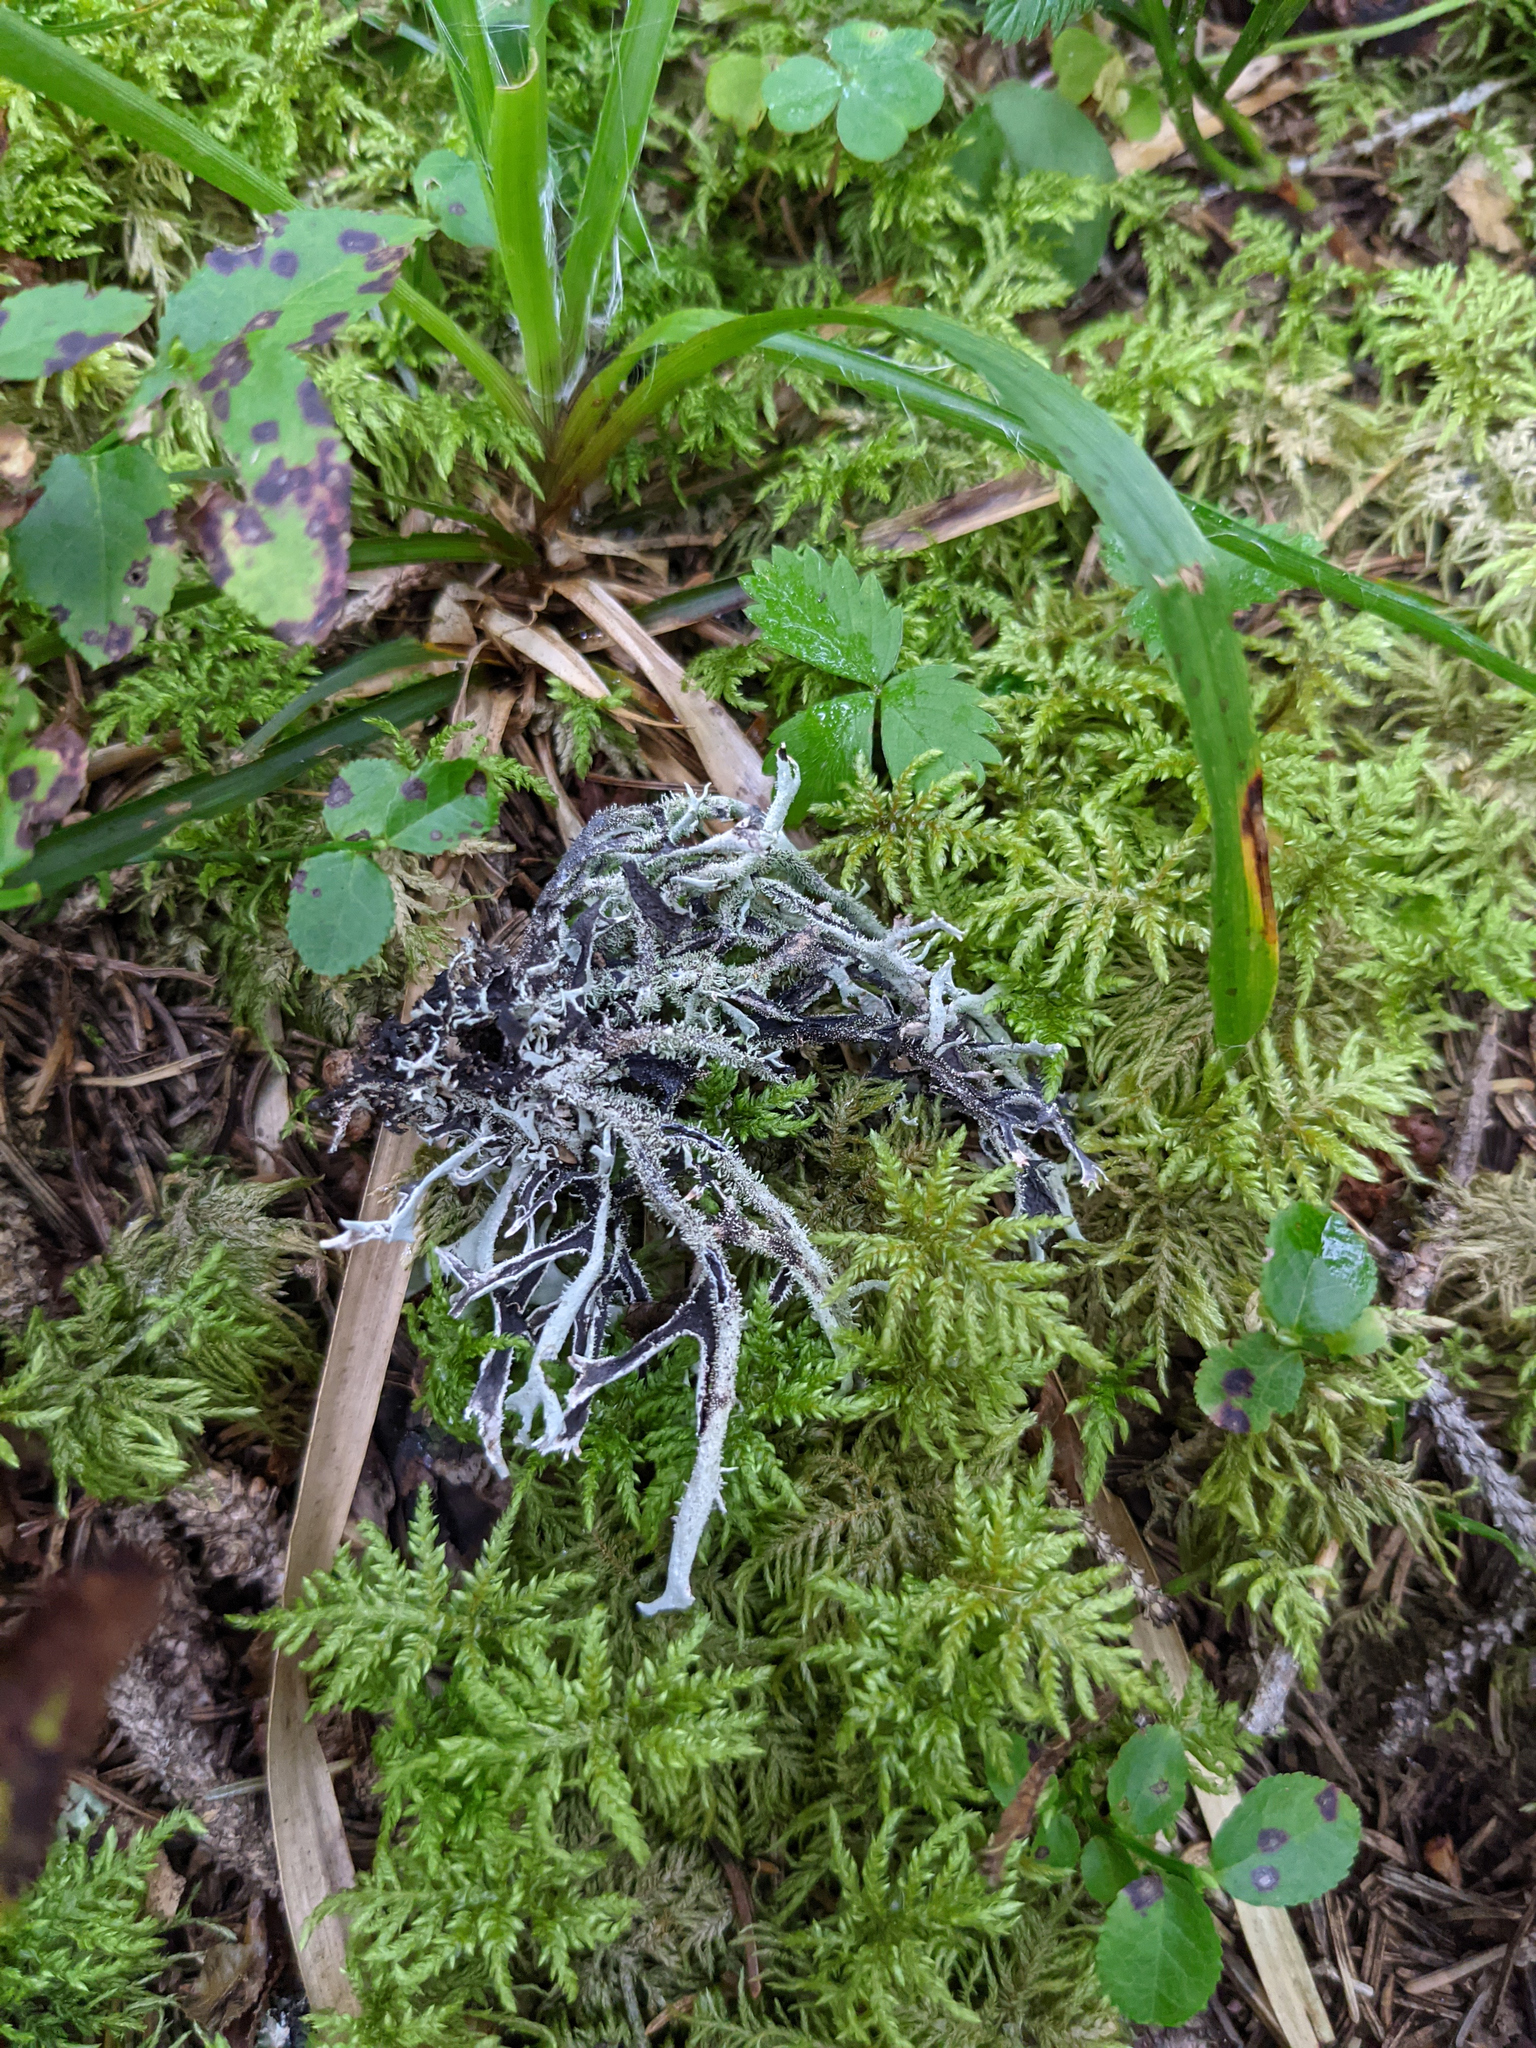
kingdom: Fungi
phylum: Ascomycota
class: Lecanoromycetes
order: Lecanorales
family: Parmeliaceae
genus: Pseudevernia
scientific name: Pseudevernia furfuracea
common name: Tree moss
